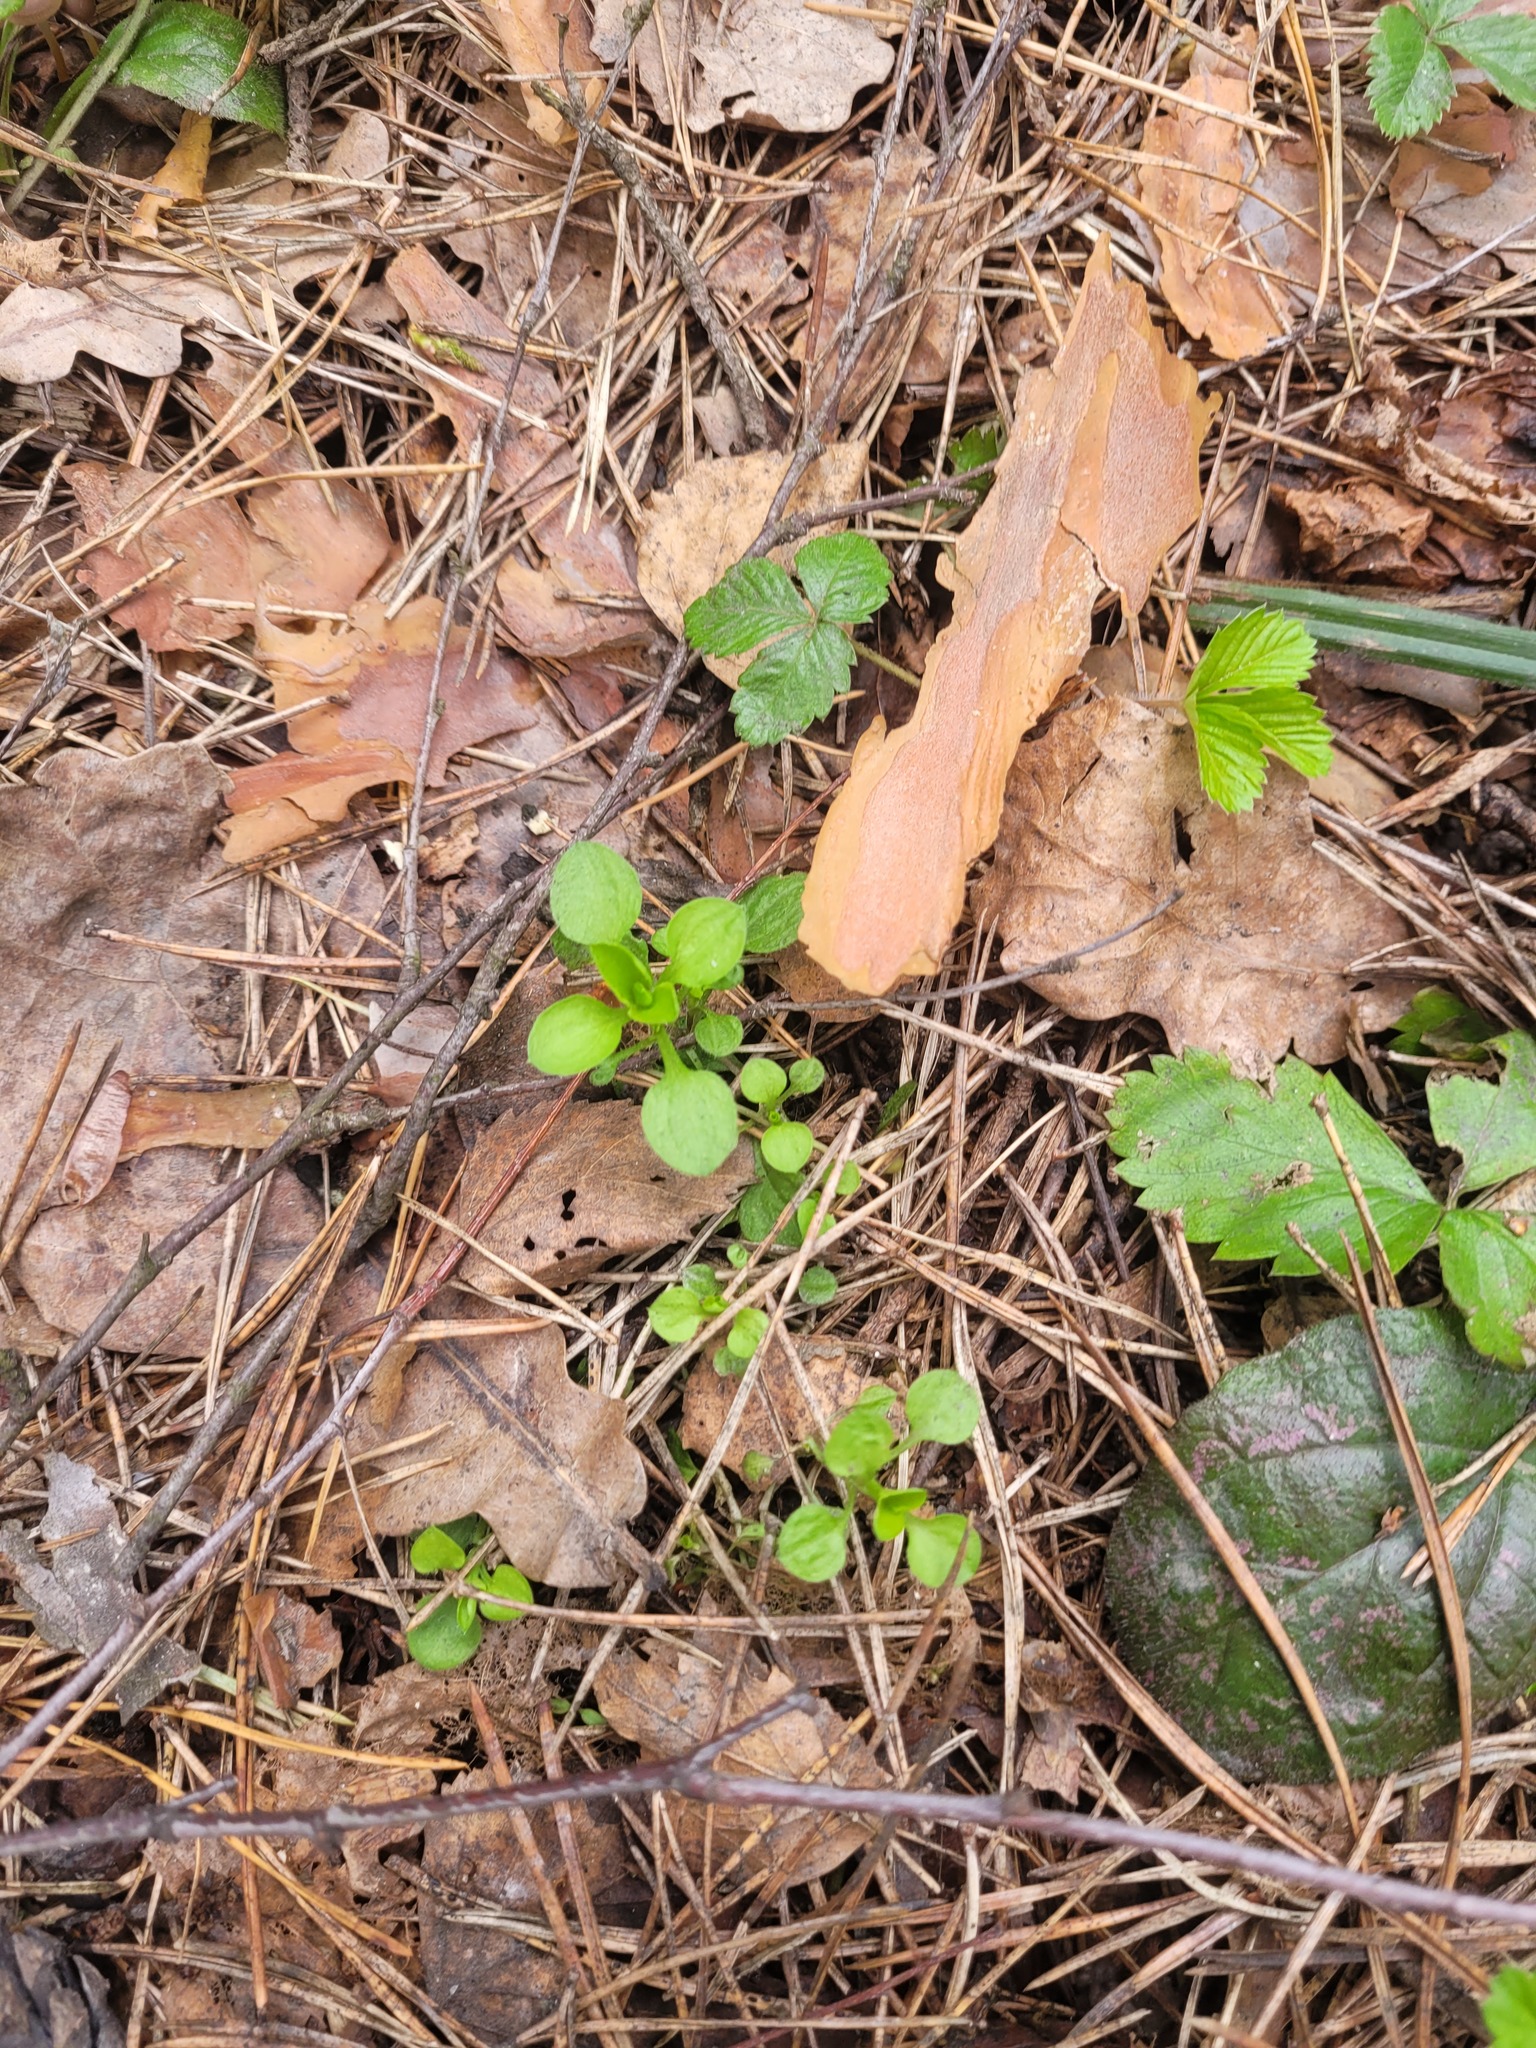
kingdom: Plantae
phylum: Tracheophyta
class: Magnoliopsida
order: Caryophyllales
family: Caryophyllaceae
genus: Moehringia
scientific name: Moehringia trinervia
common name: Three-nerved sandwort
